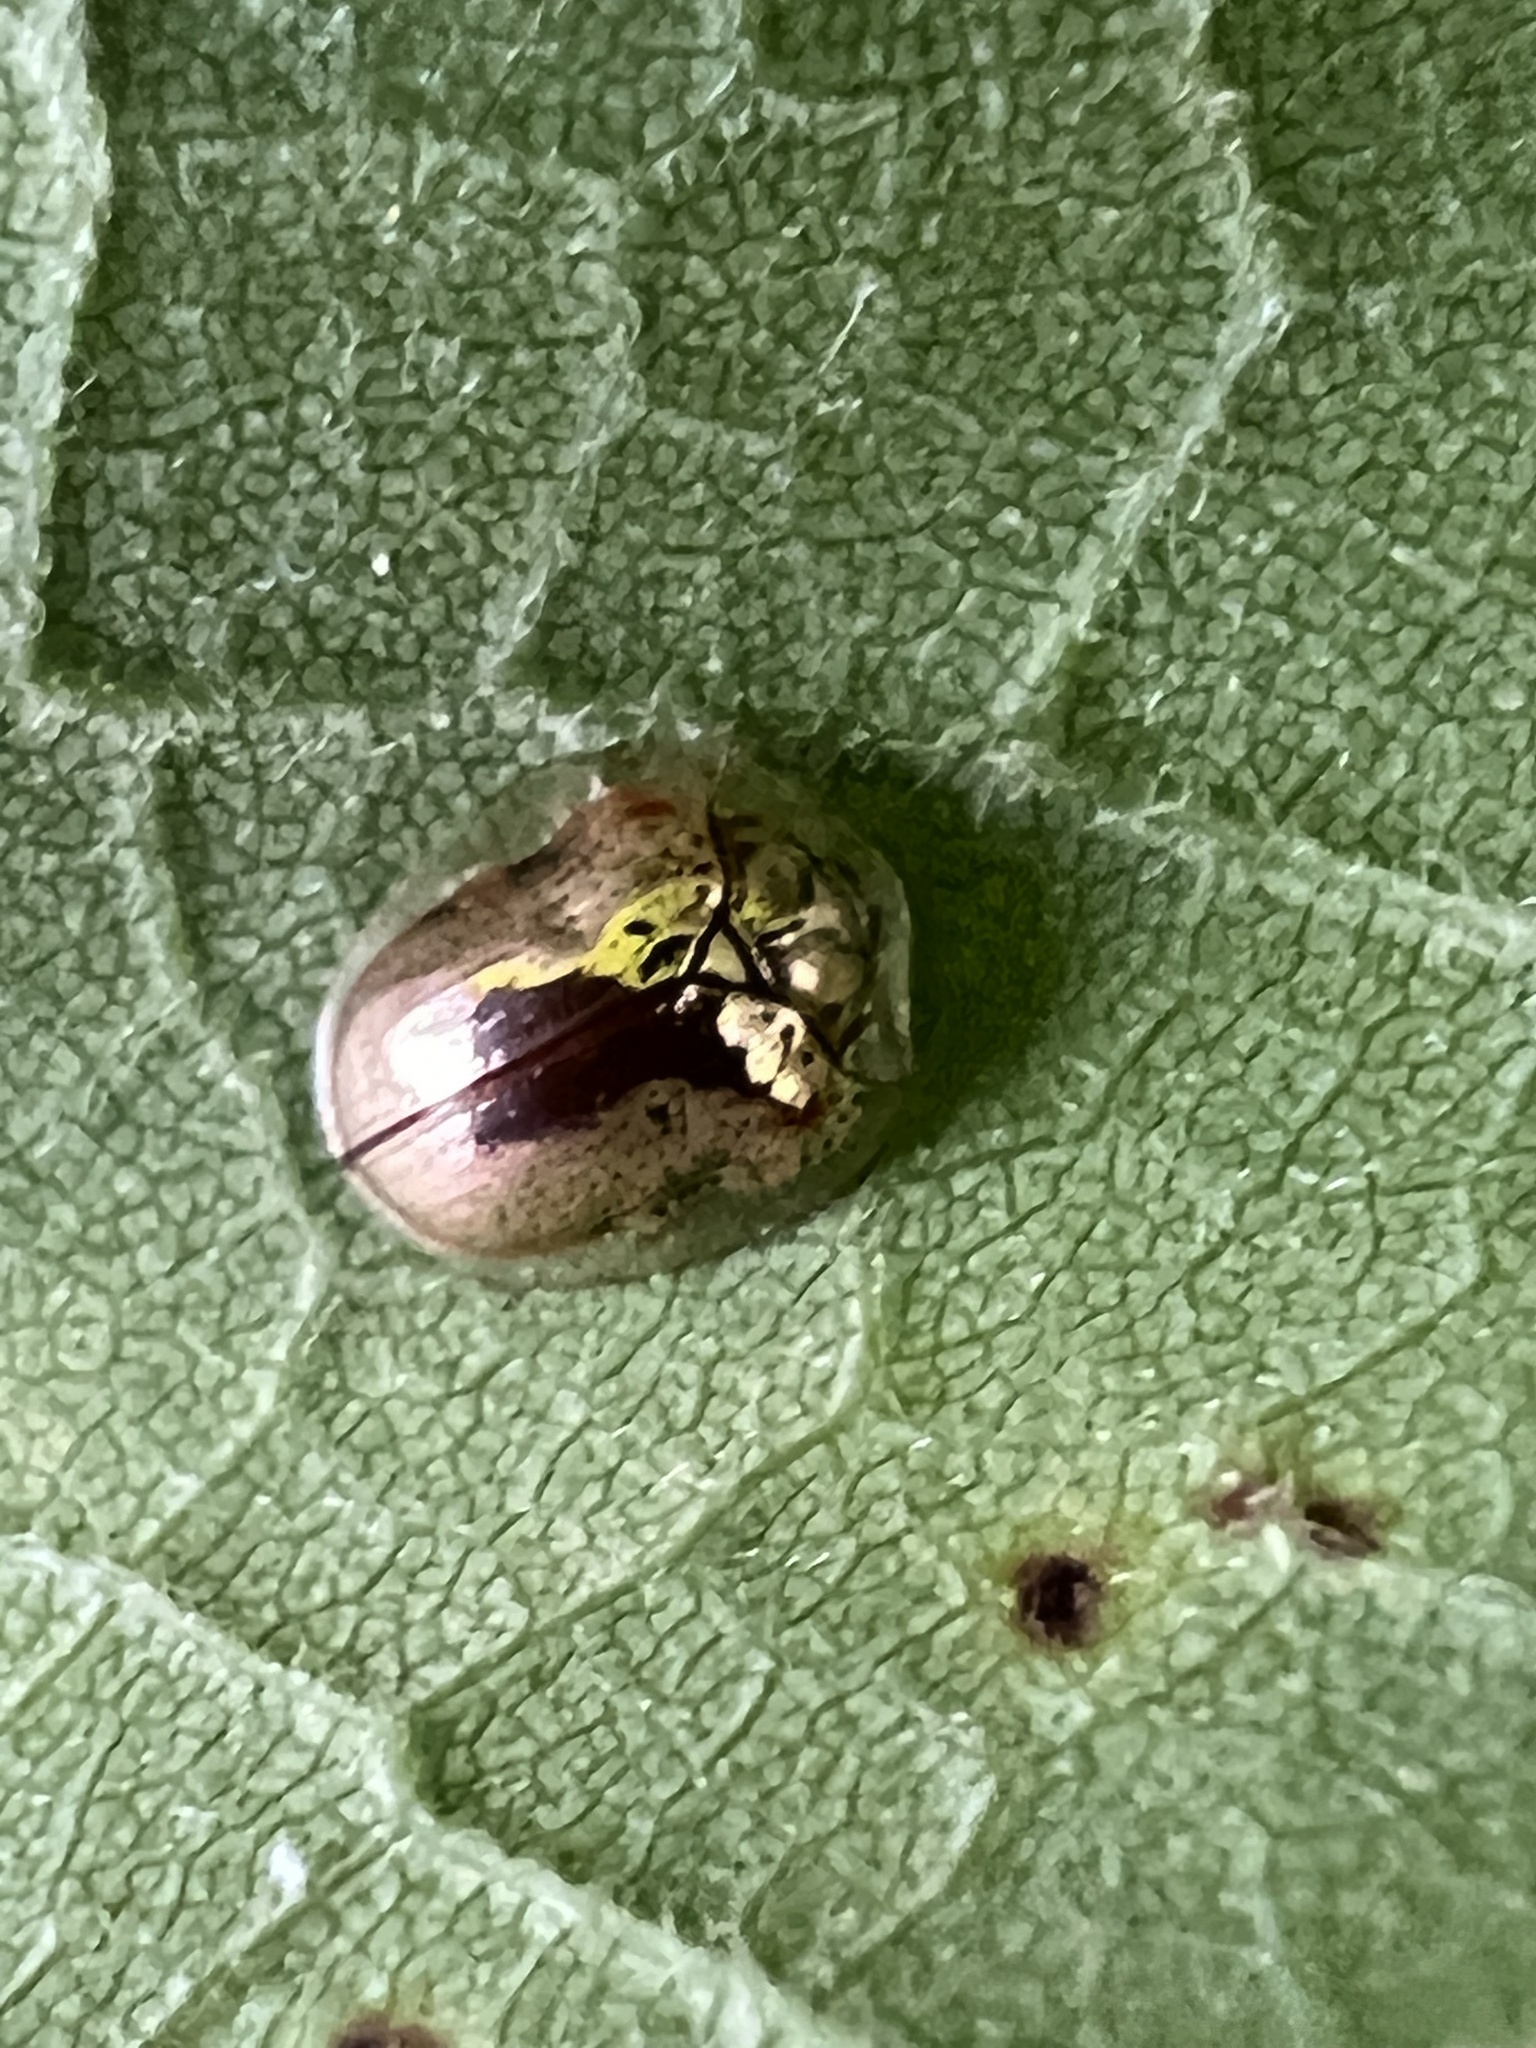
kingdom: Animalia
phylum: Arthropoda
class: Insecta
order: Coleoptera
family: Chrysomelidae
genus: Charidotella
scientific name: Charidotella sexpunctata
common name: Golden tortoise beetle
